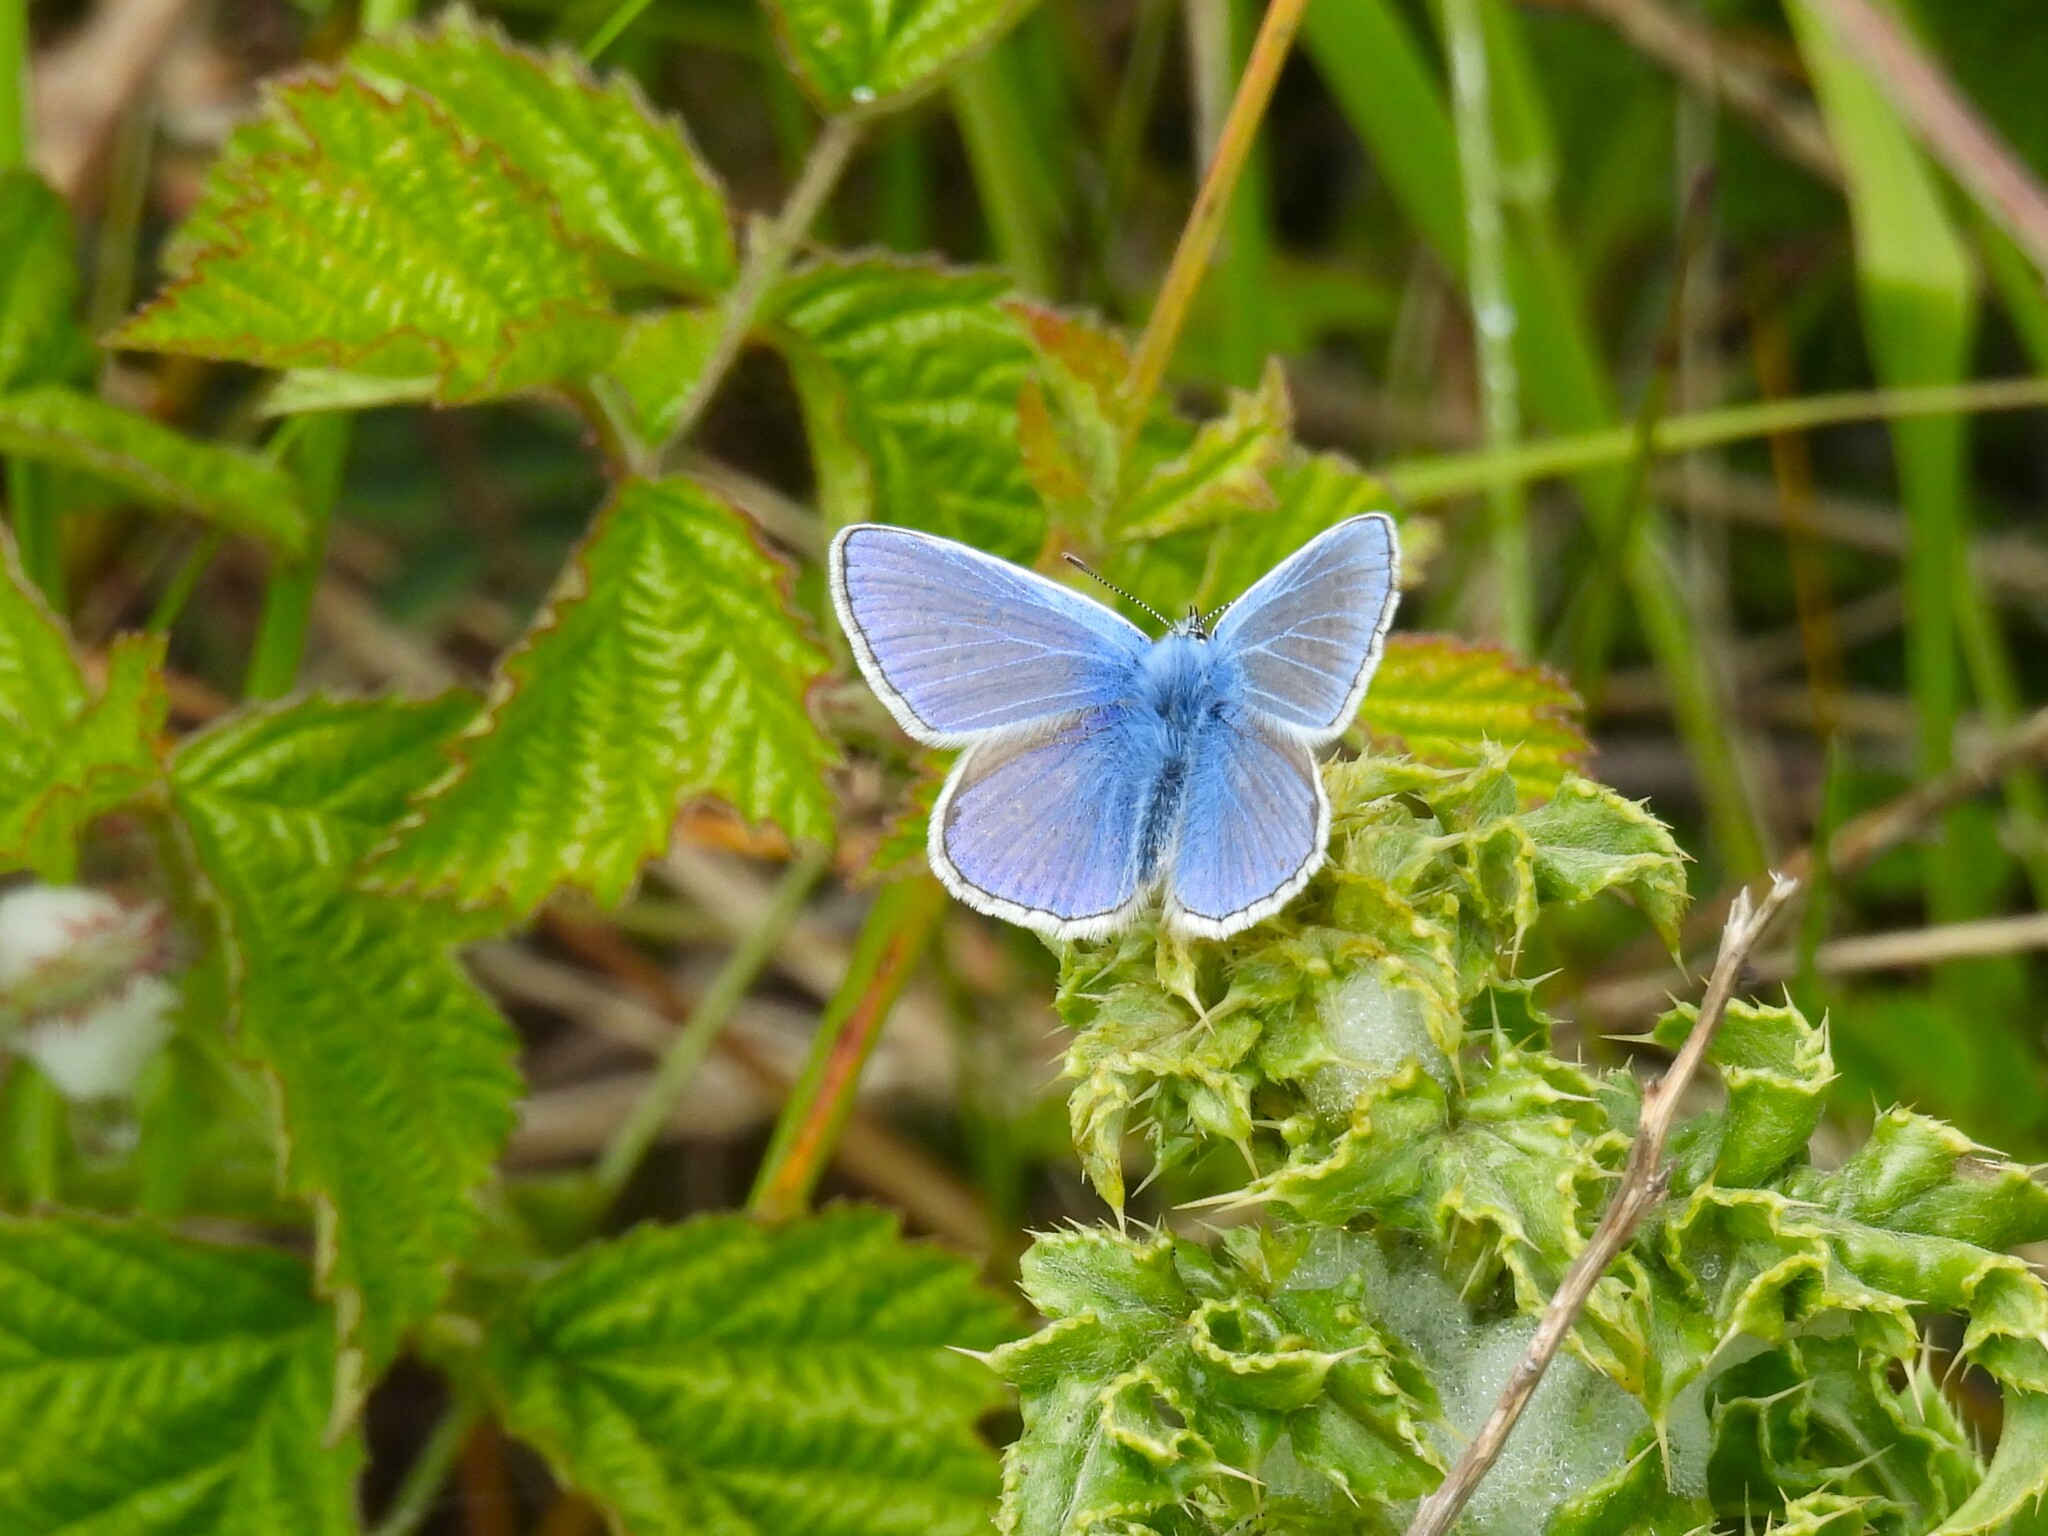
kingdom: Animalia
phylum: Arthropoda
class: Insecta
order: Lepidoptera
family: Lycaenidae
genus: Polyommatus
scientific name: Polyommatus icarus
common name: Common blue
